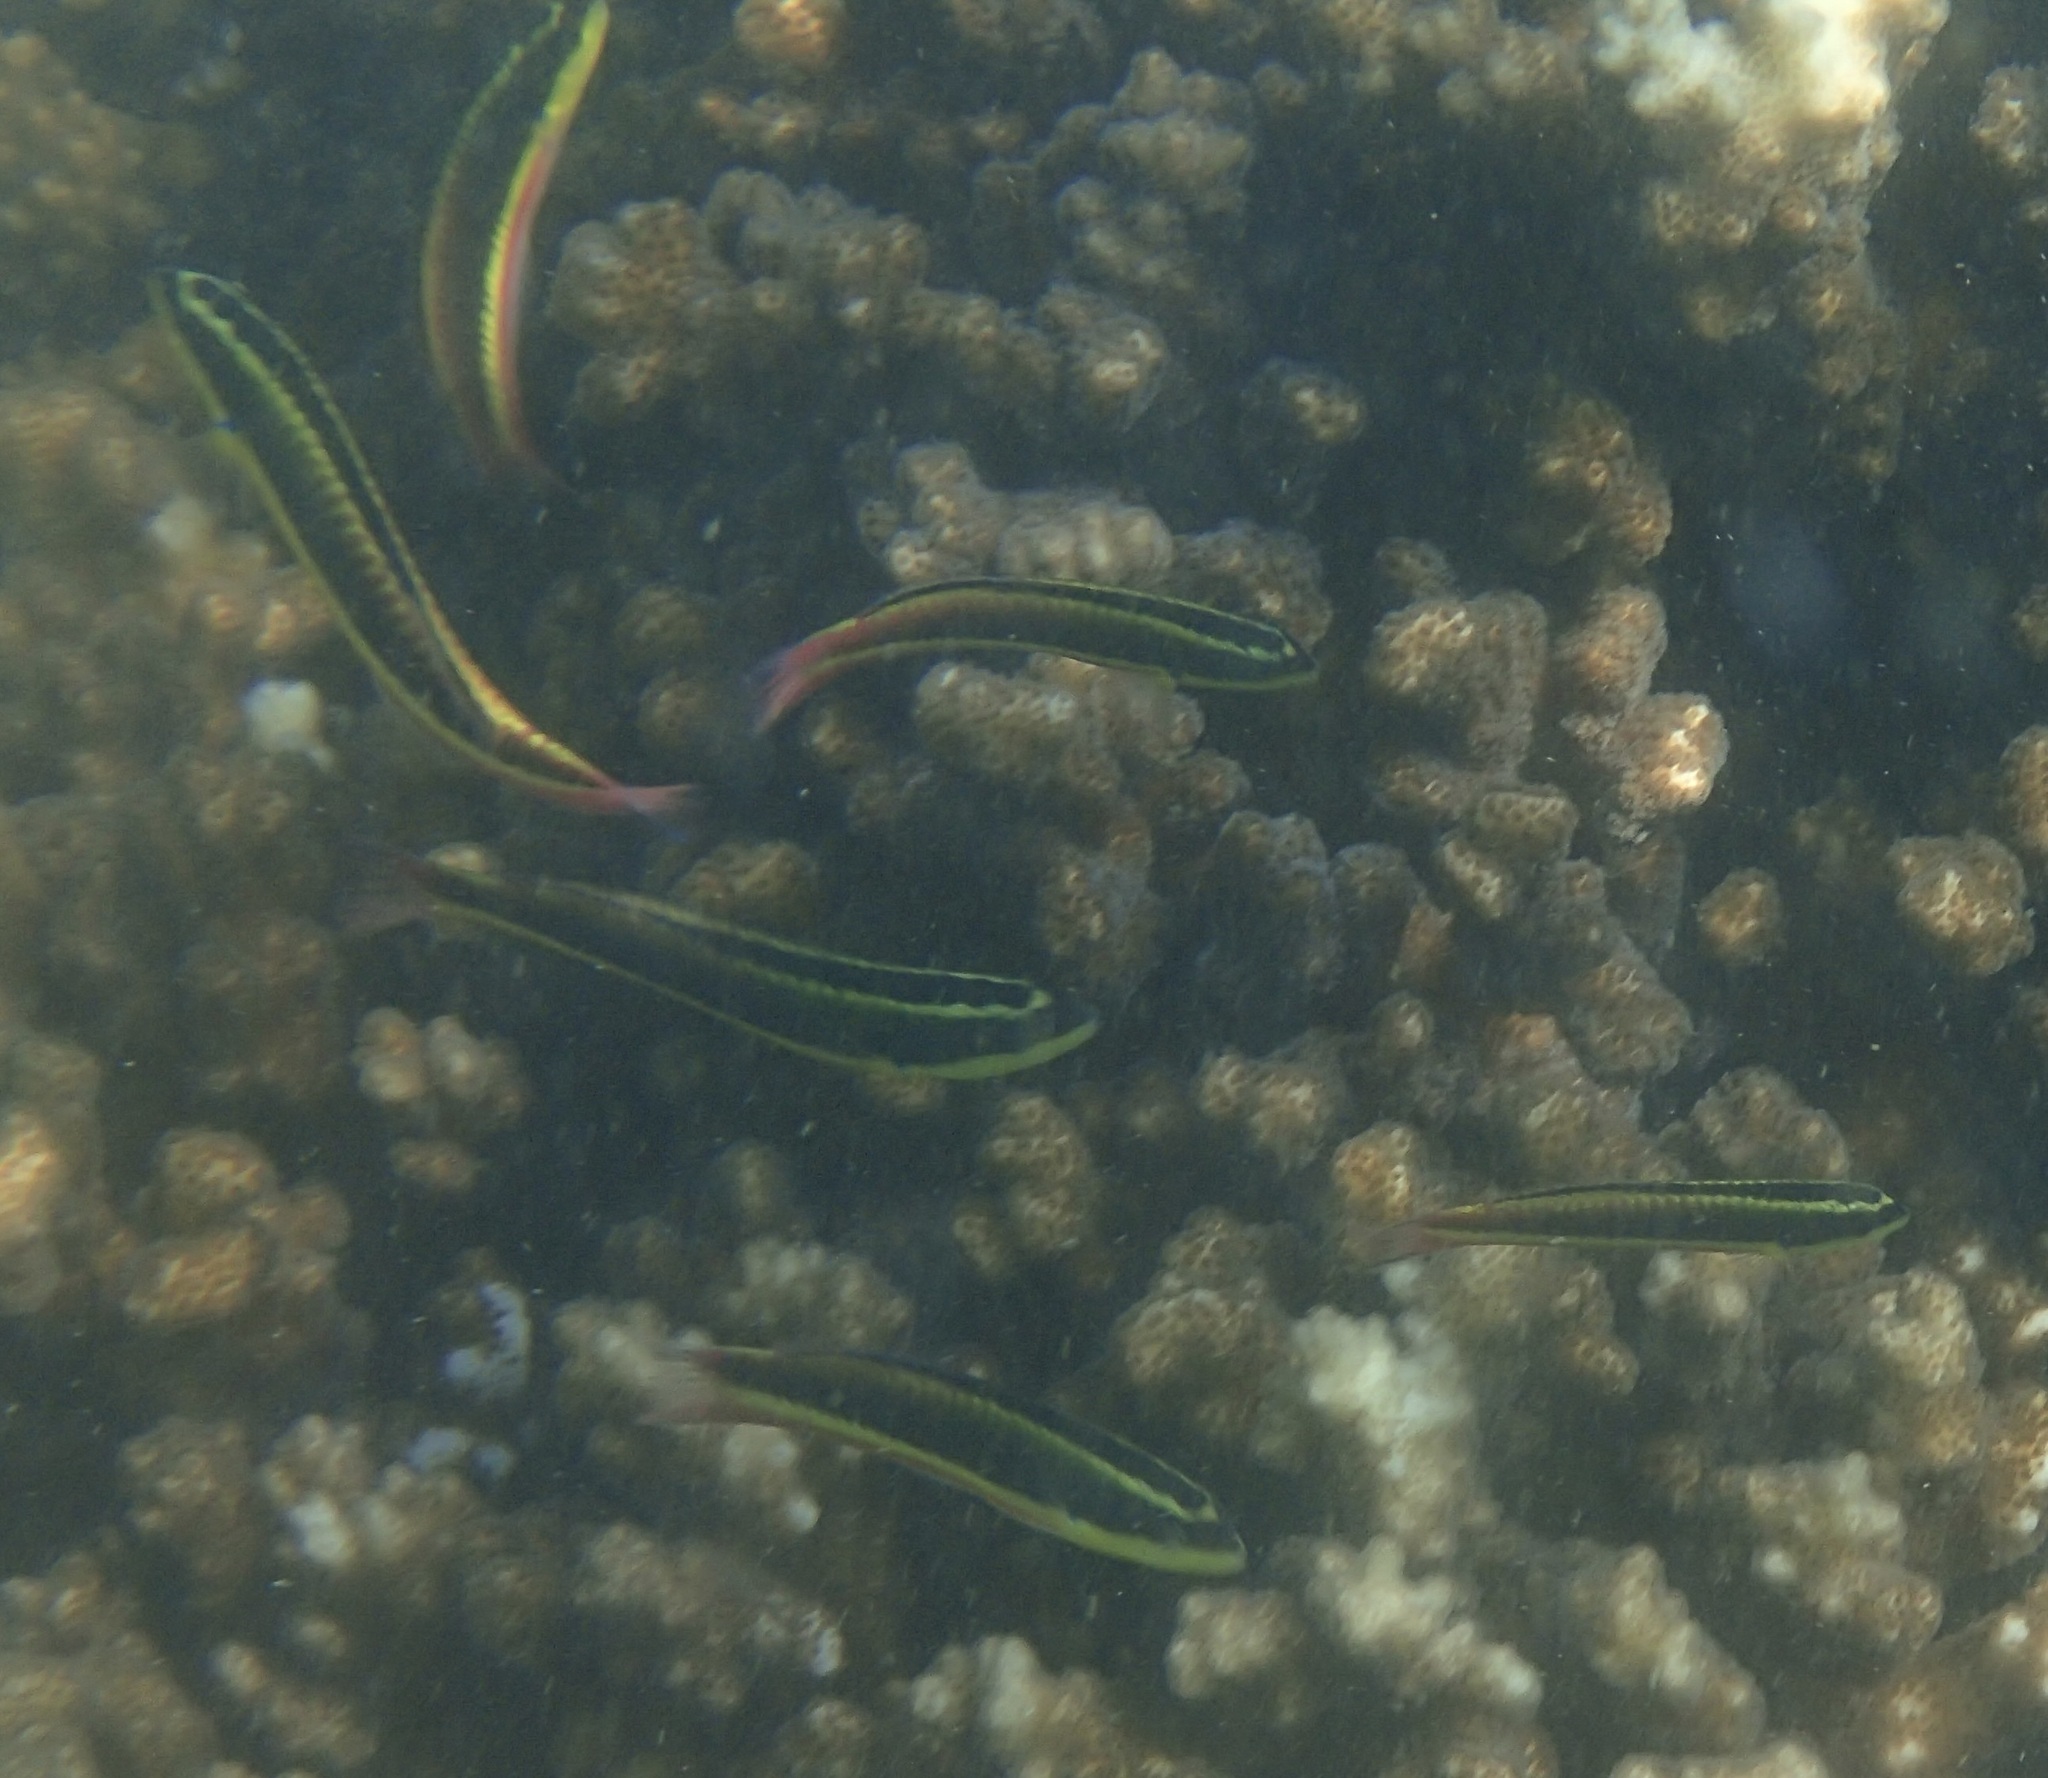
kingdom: Animalia
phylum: Chordata
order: Perciformes
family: Labridae
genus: Thalassoma
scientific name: Thalassoma lucasanum
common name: Cortez rainbow wrasse
